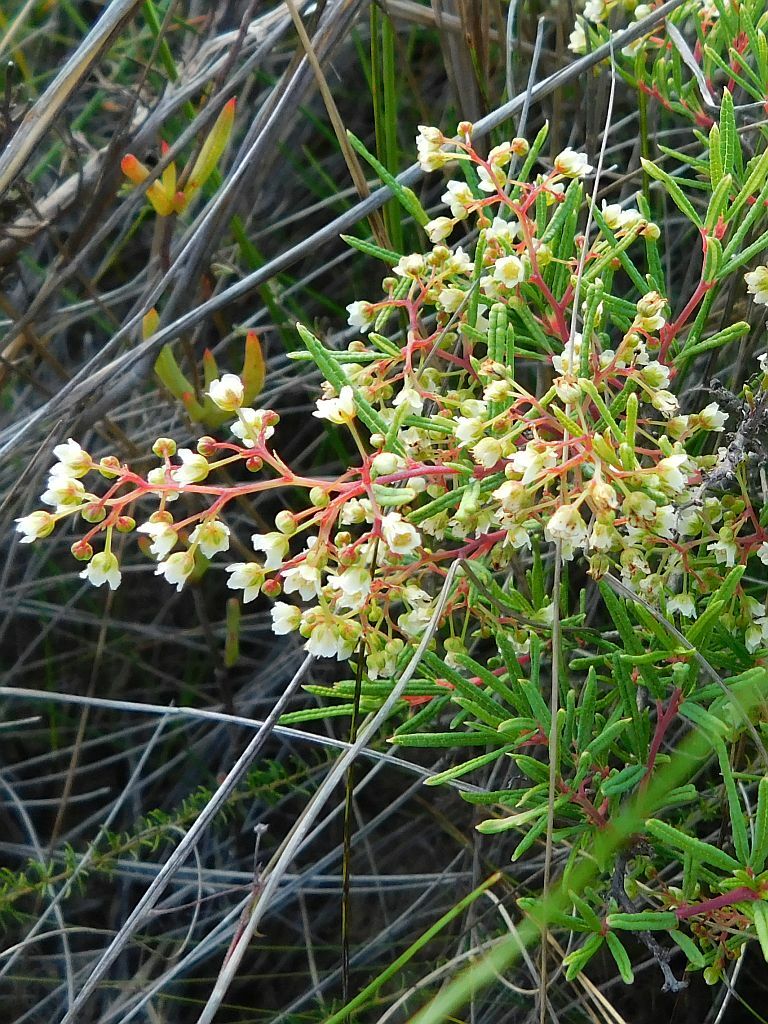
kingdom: Plantae
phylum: Tracheophyta
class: Magnoliopsida
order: Sapindales
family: Anacardiaceae
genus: Searsia
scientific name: Searsia rosmarinifolia
